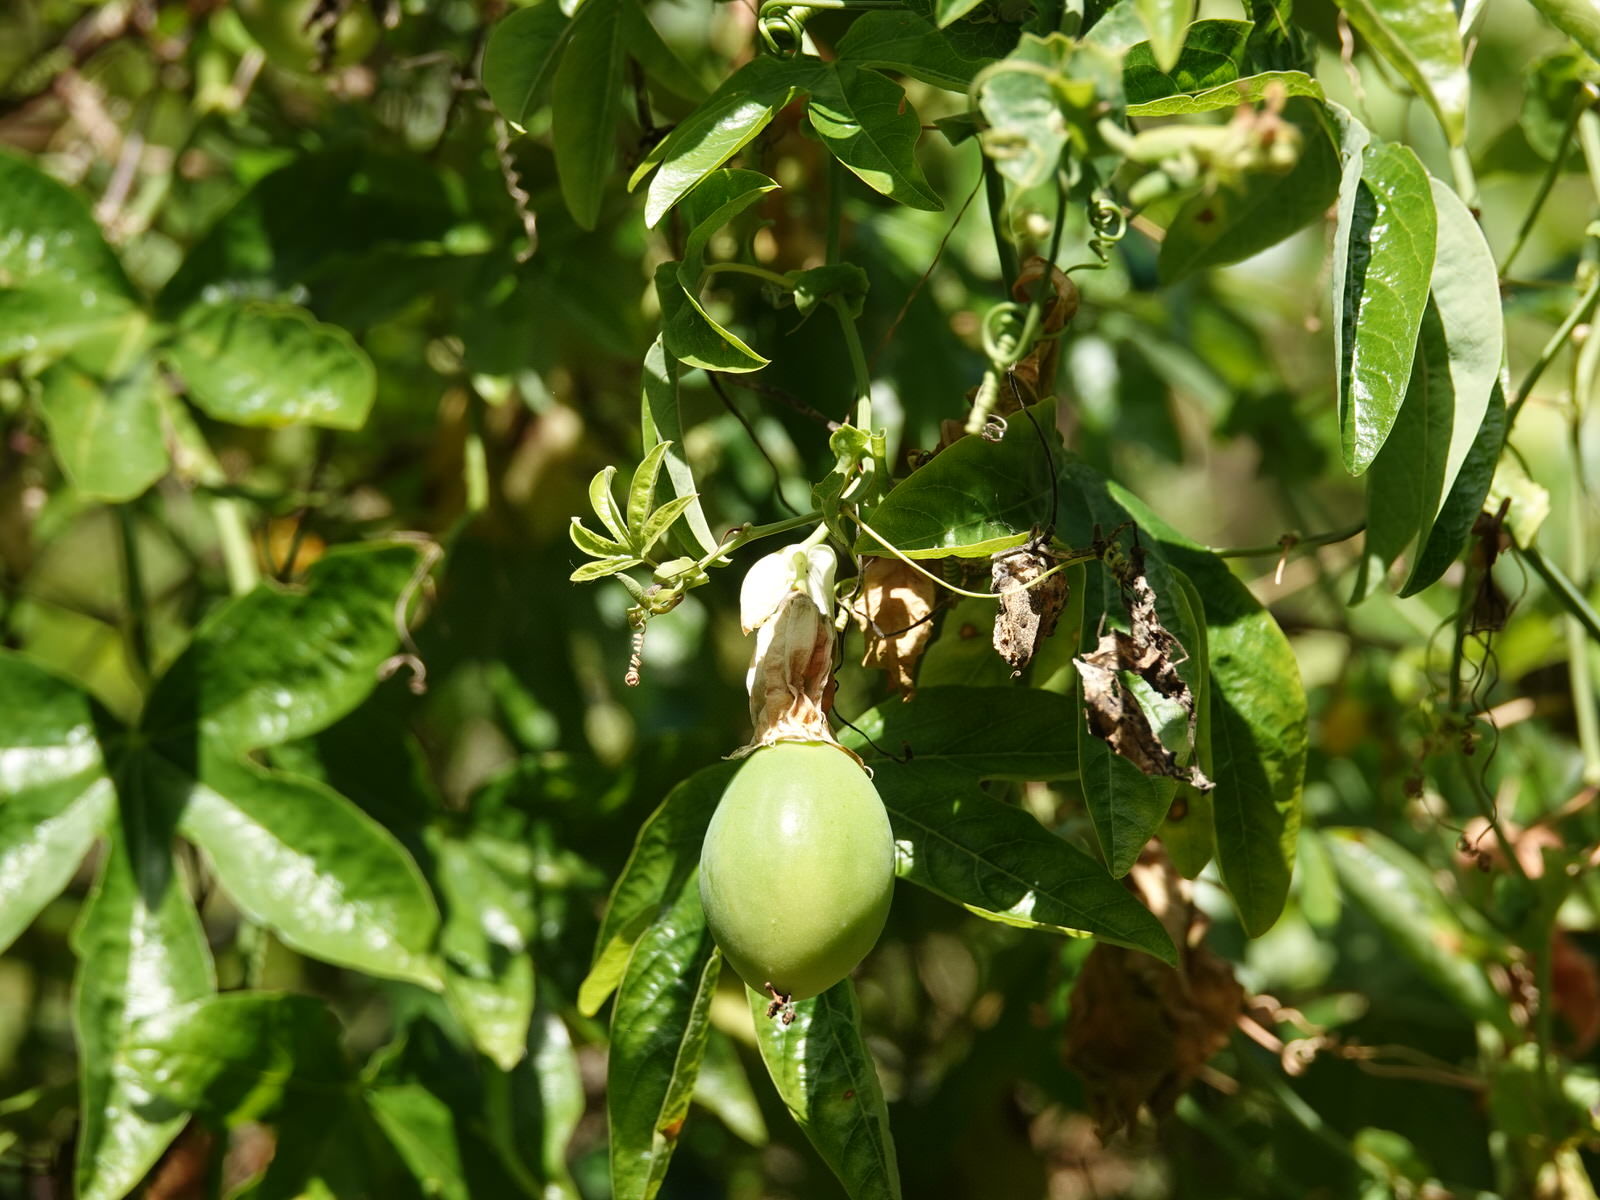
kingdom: Plantae
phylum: Tracheophyta
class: Magnoliopsida
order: Malpighiales
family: Passifloraceae
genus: Passiflora
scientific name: Passiflora caerulea
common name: Blue passionflower
